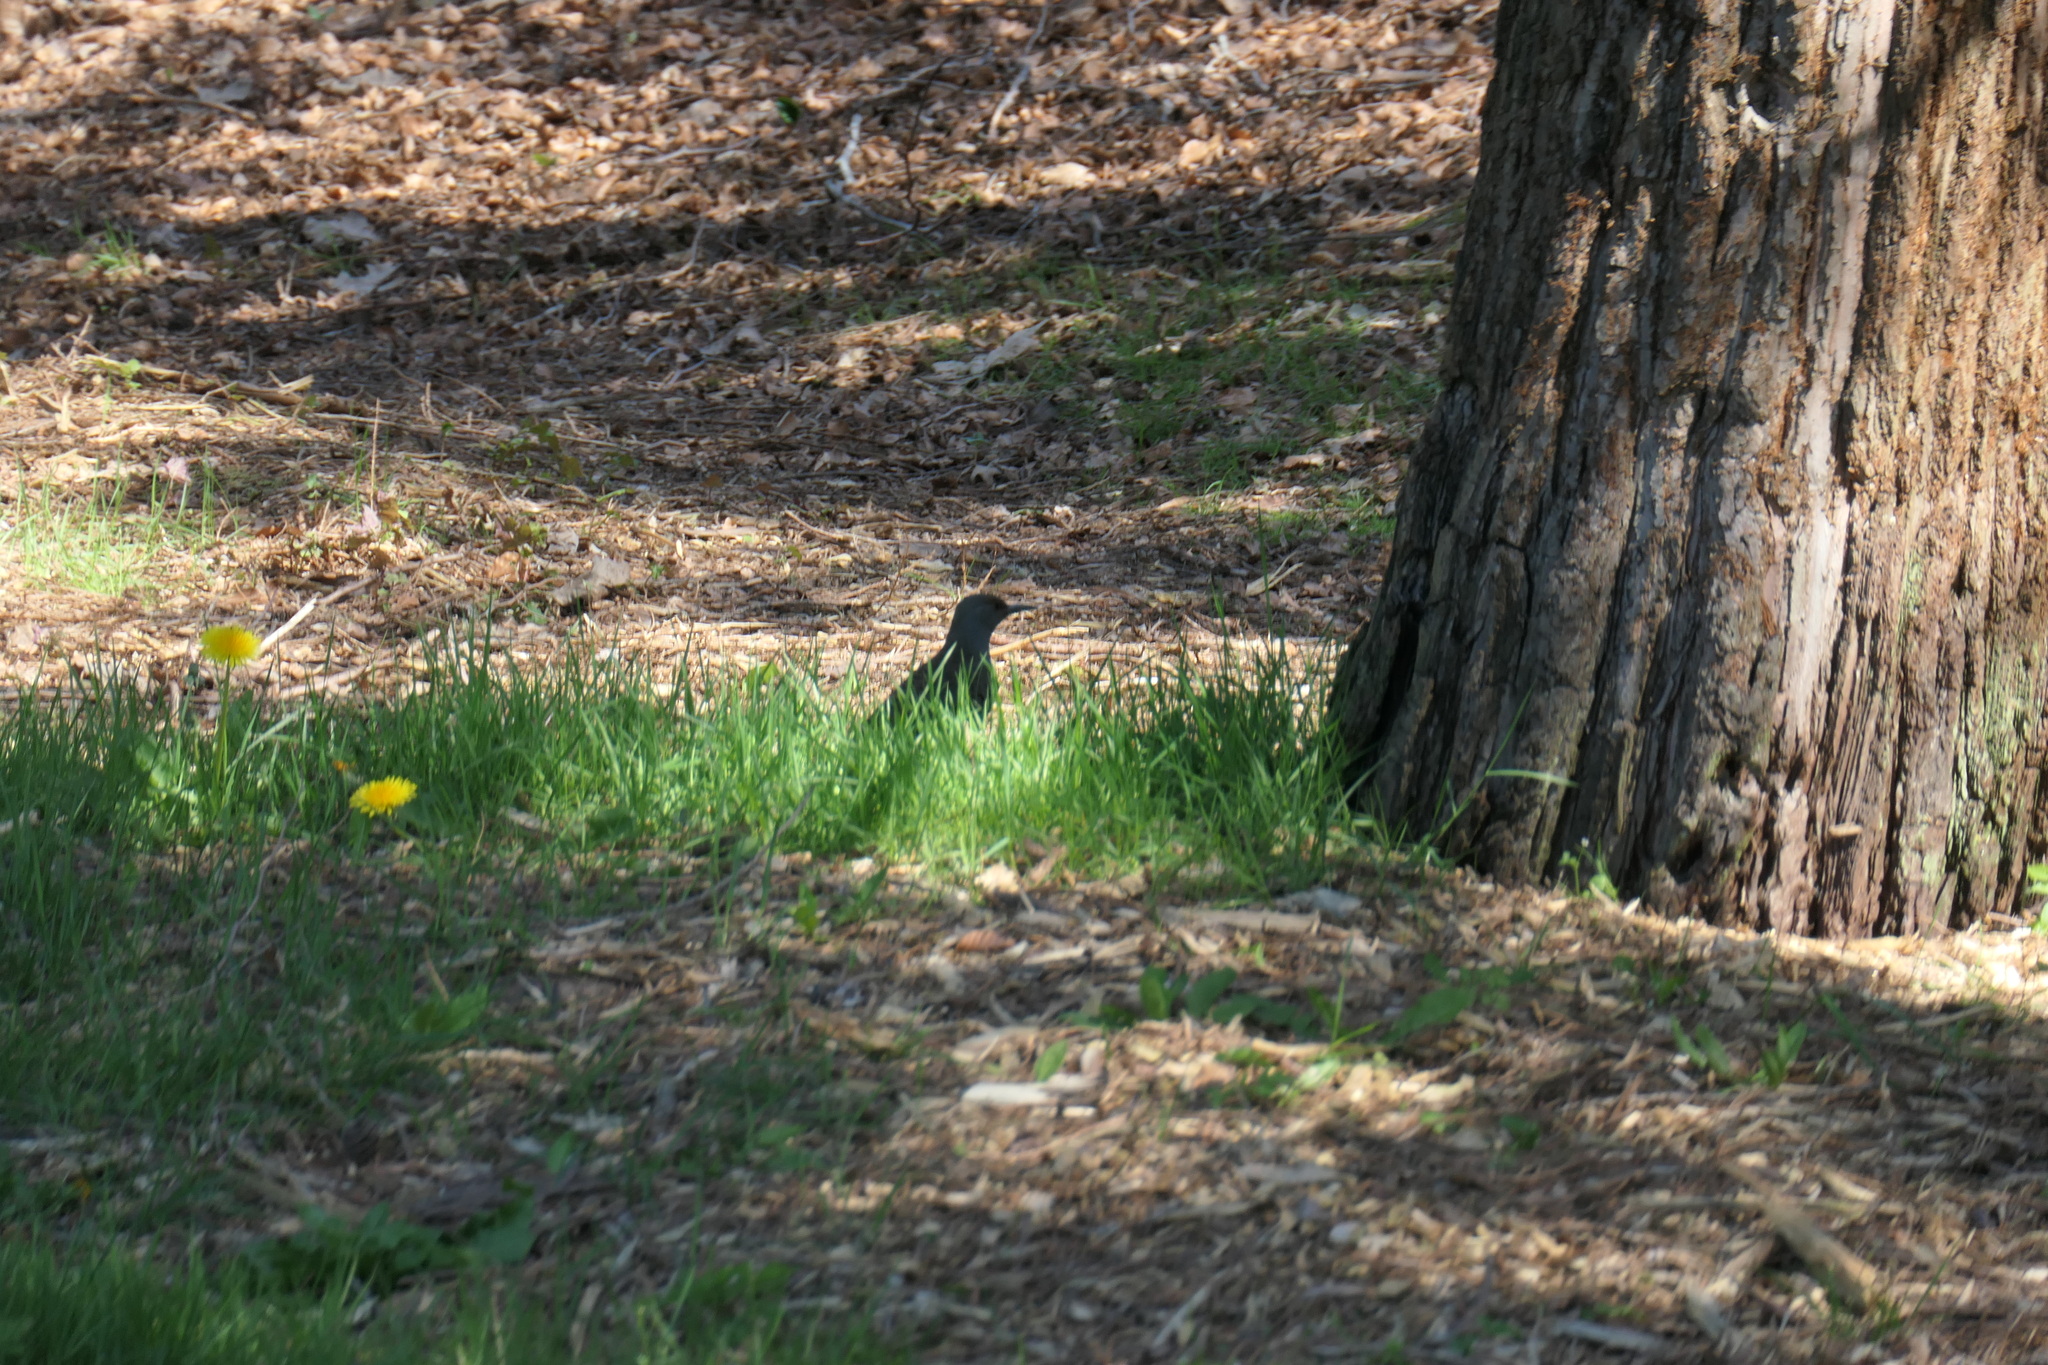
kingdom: Animalia
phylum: Chordata
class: Aves
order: Piciformes
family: Picidae
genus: Colaptes
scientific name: Colaptes auratus
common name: Northern flicker
